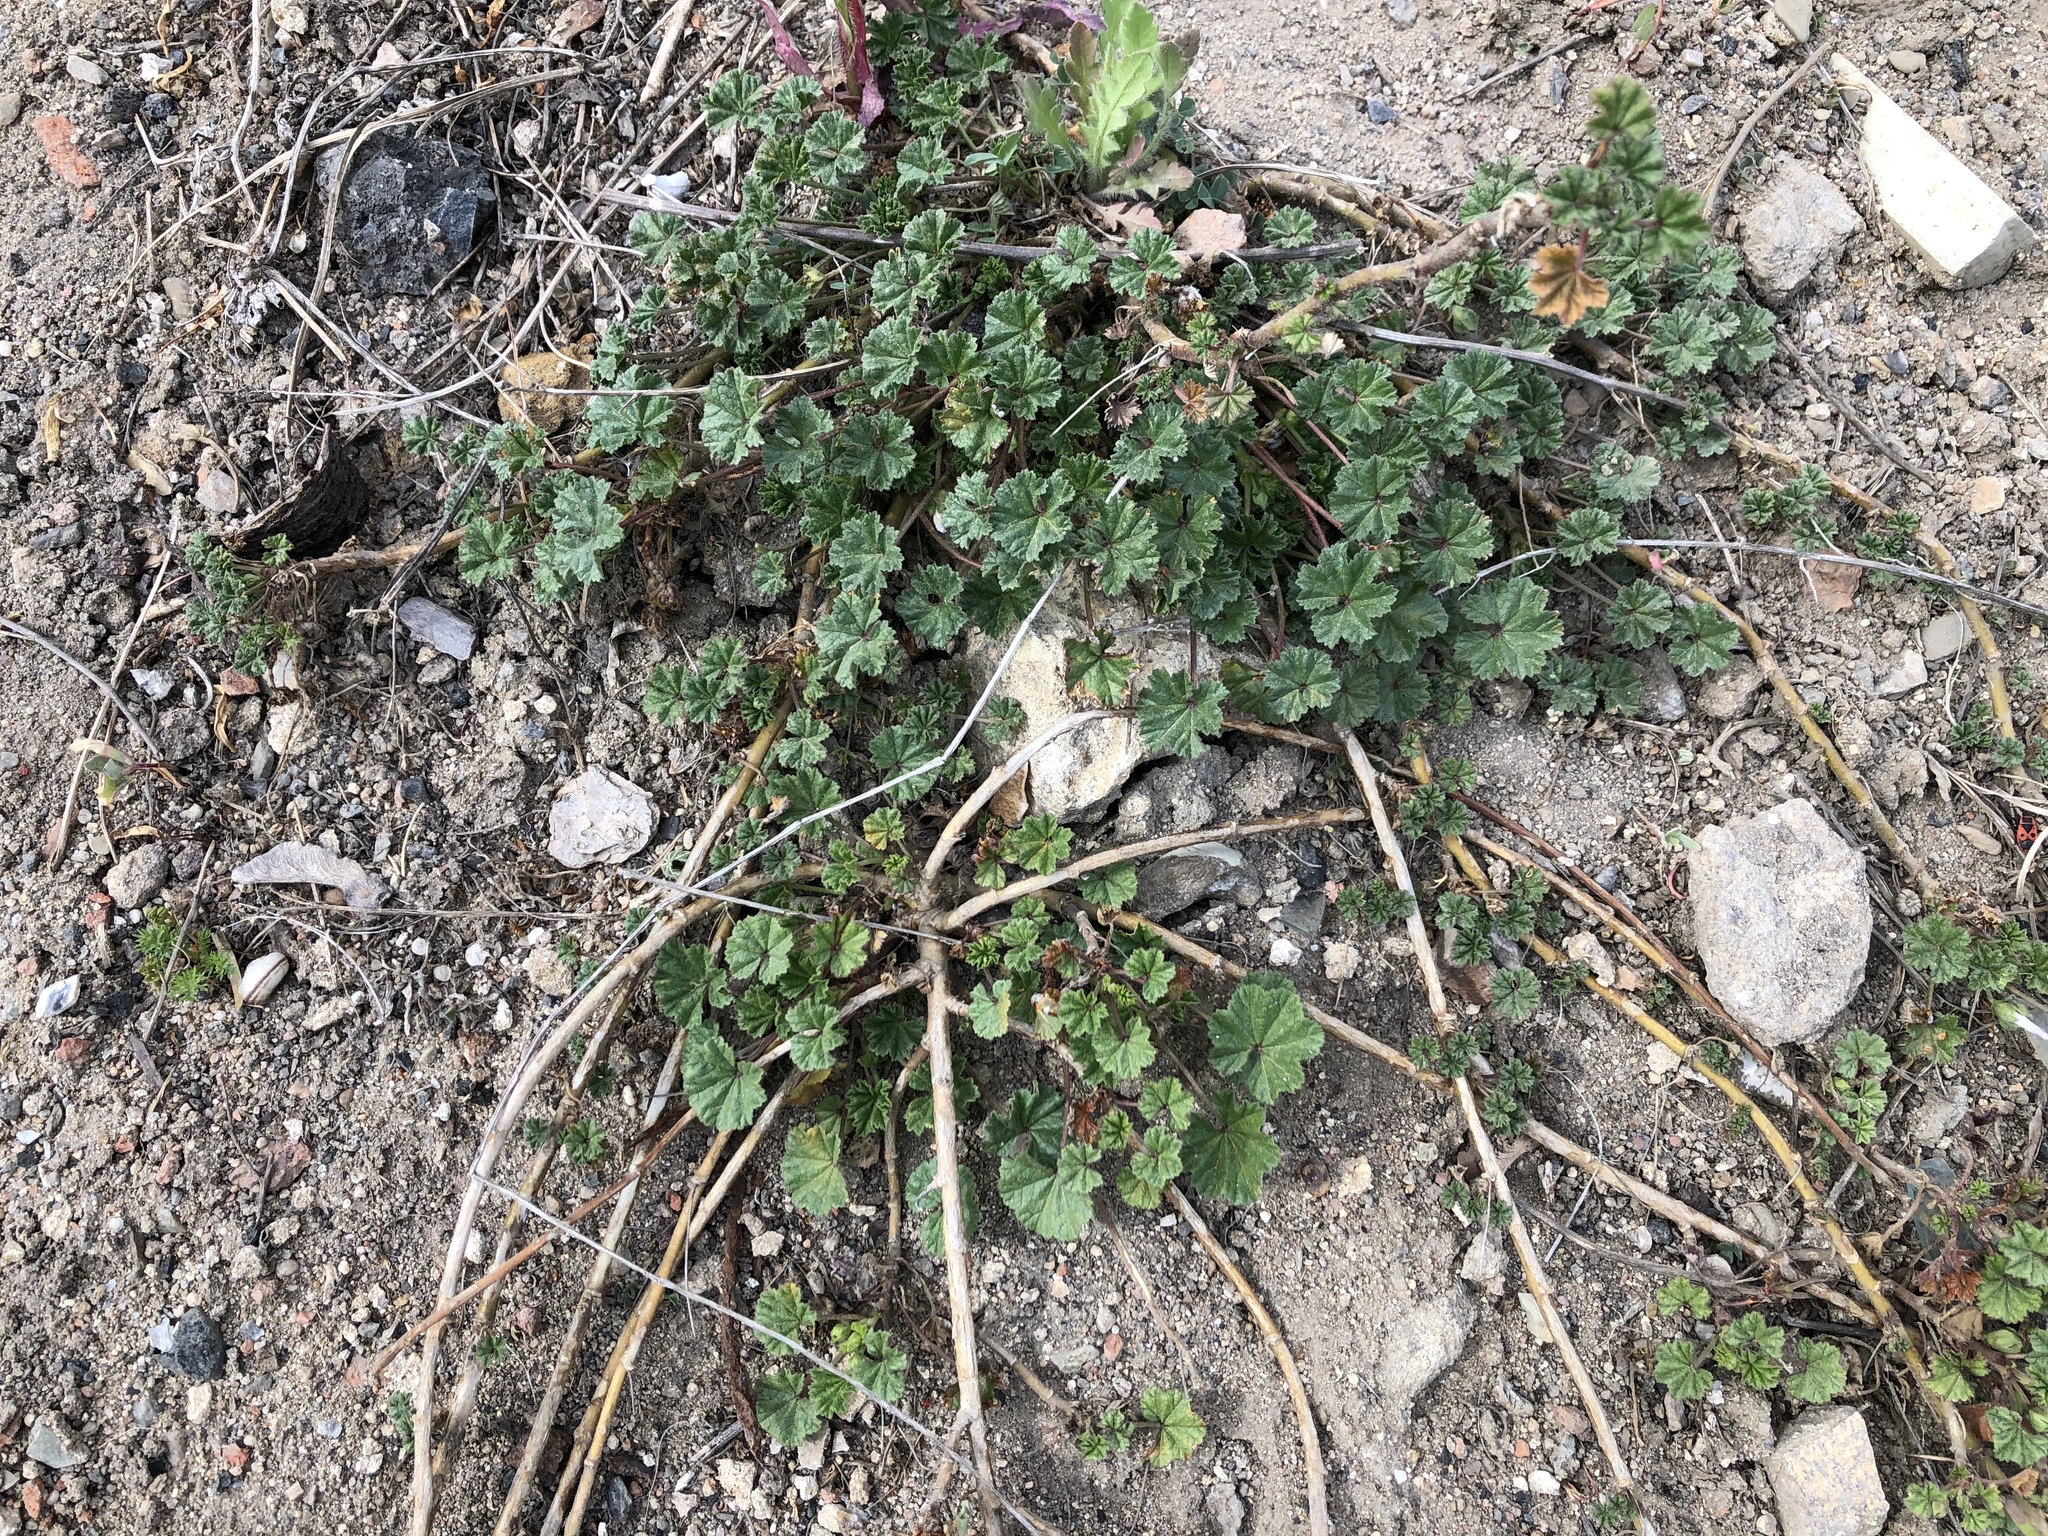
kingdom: Plantae
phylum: Tracheophyta
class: Magnoliopsida
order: Malvales
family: Malvaceae
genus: Malva
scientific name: Malva neglecta
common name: Common mallow
